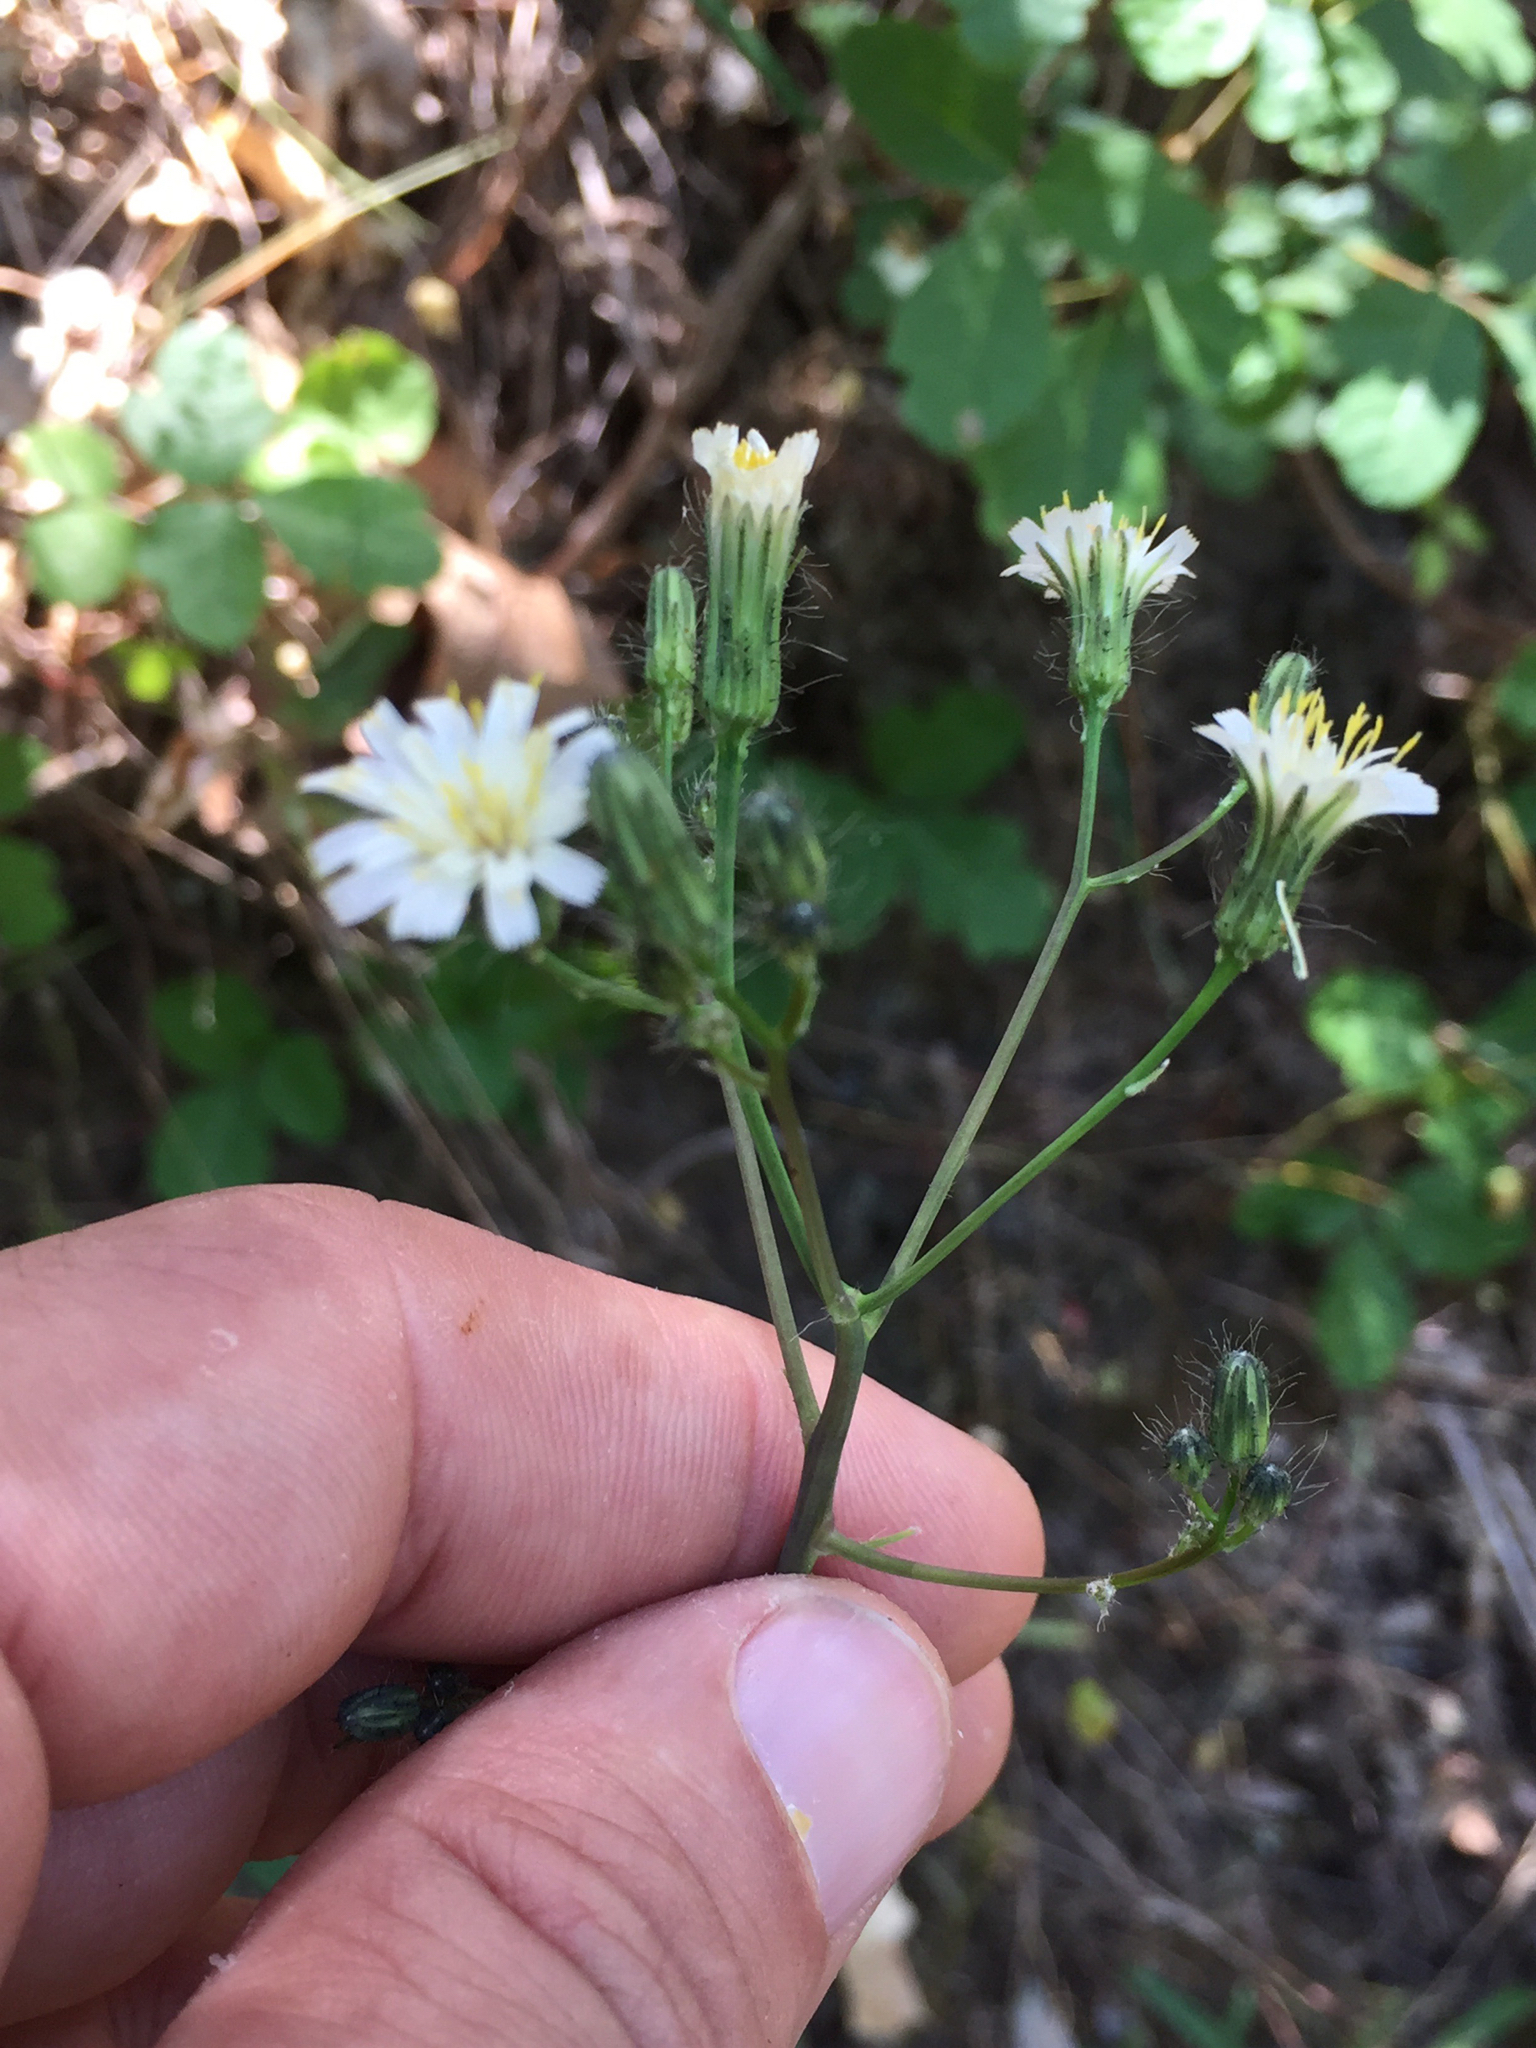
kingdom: Plantae
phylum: Tracheophyta
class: Magnoliopsida
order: Asterales
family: Asteraceae
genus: Hieracium
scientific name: Hieracium albiflorum
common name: White hawkweed
